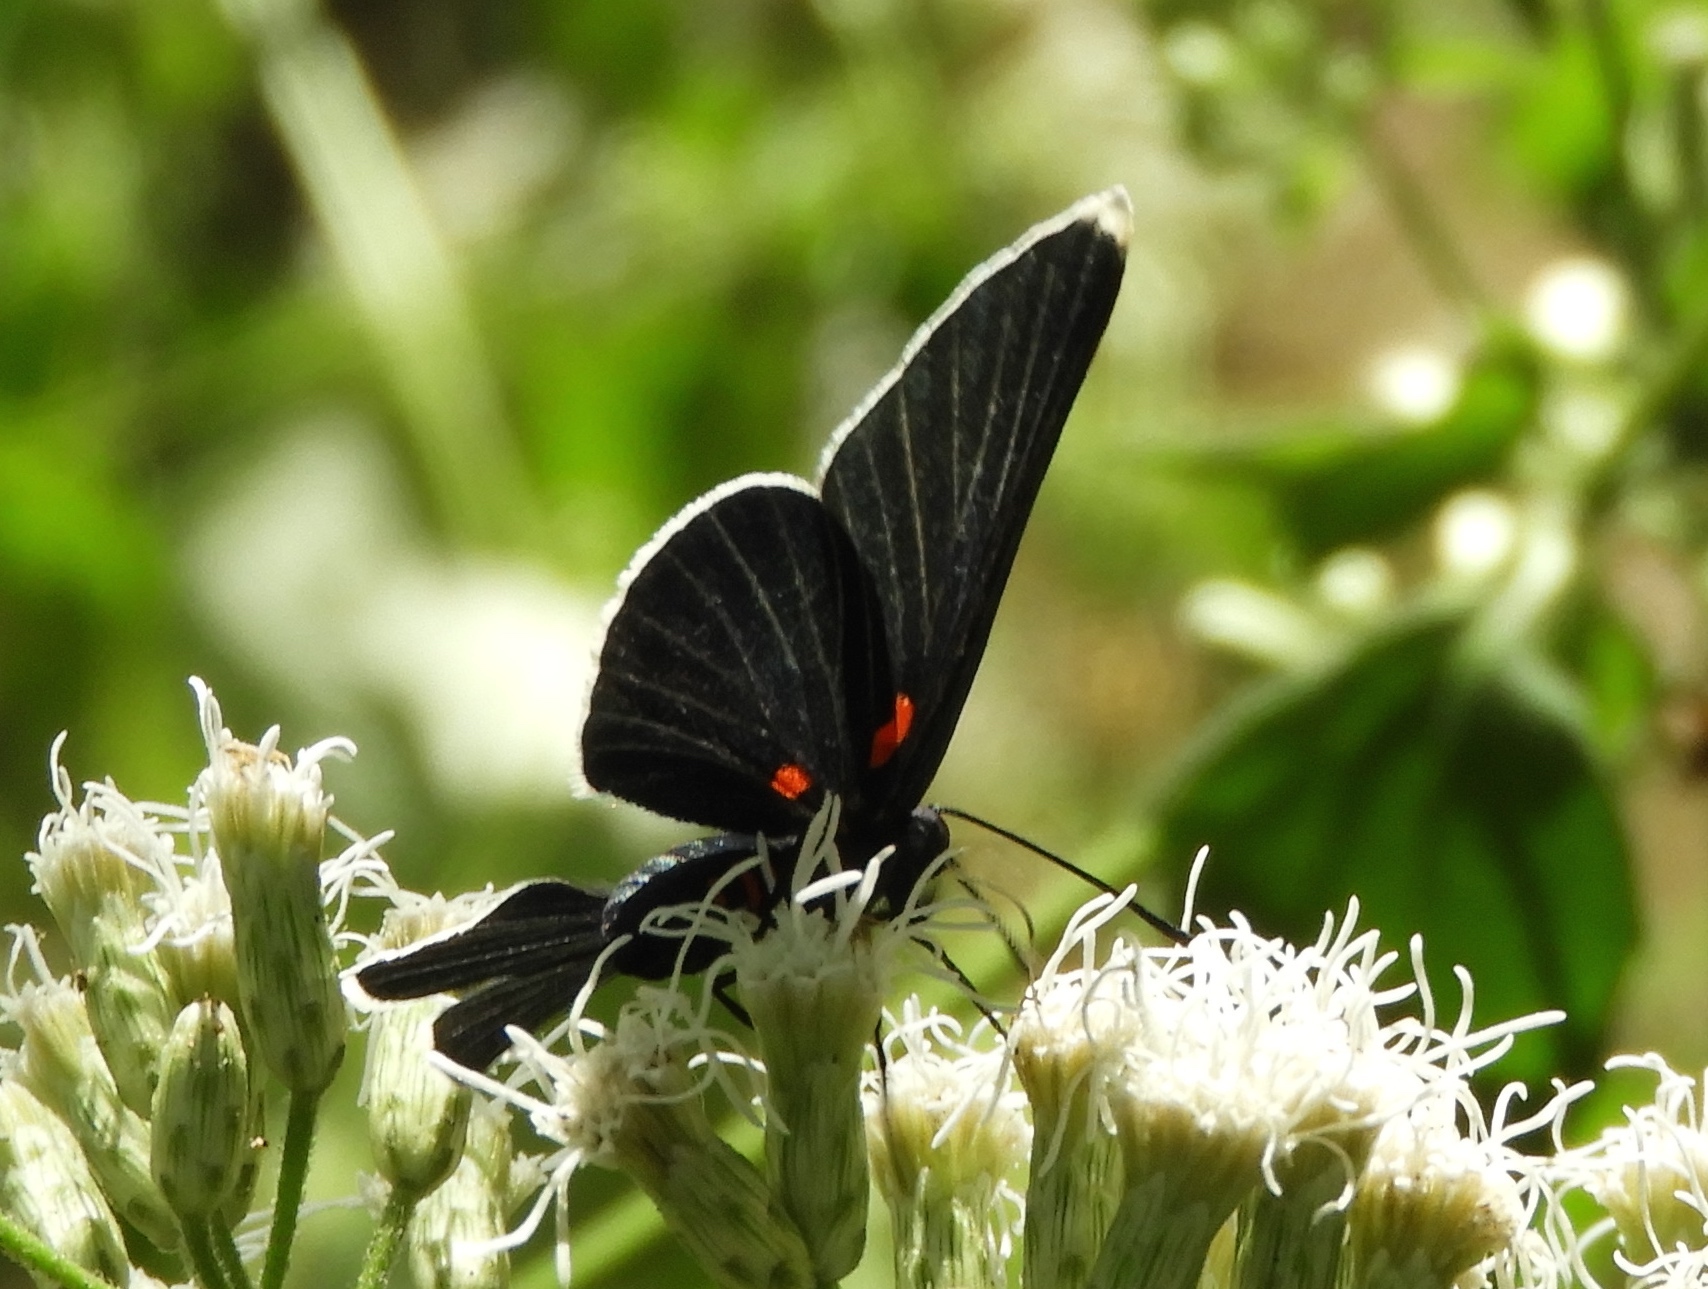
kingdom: Animalia
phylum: Arthropoda
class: Insecta
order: Lepidoptera
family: Lycaenidae
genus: Melanis
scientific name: Melanis
